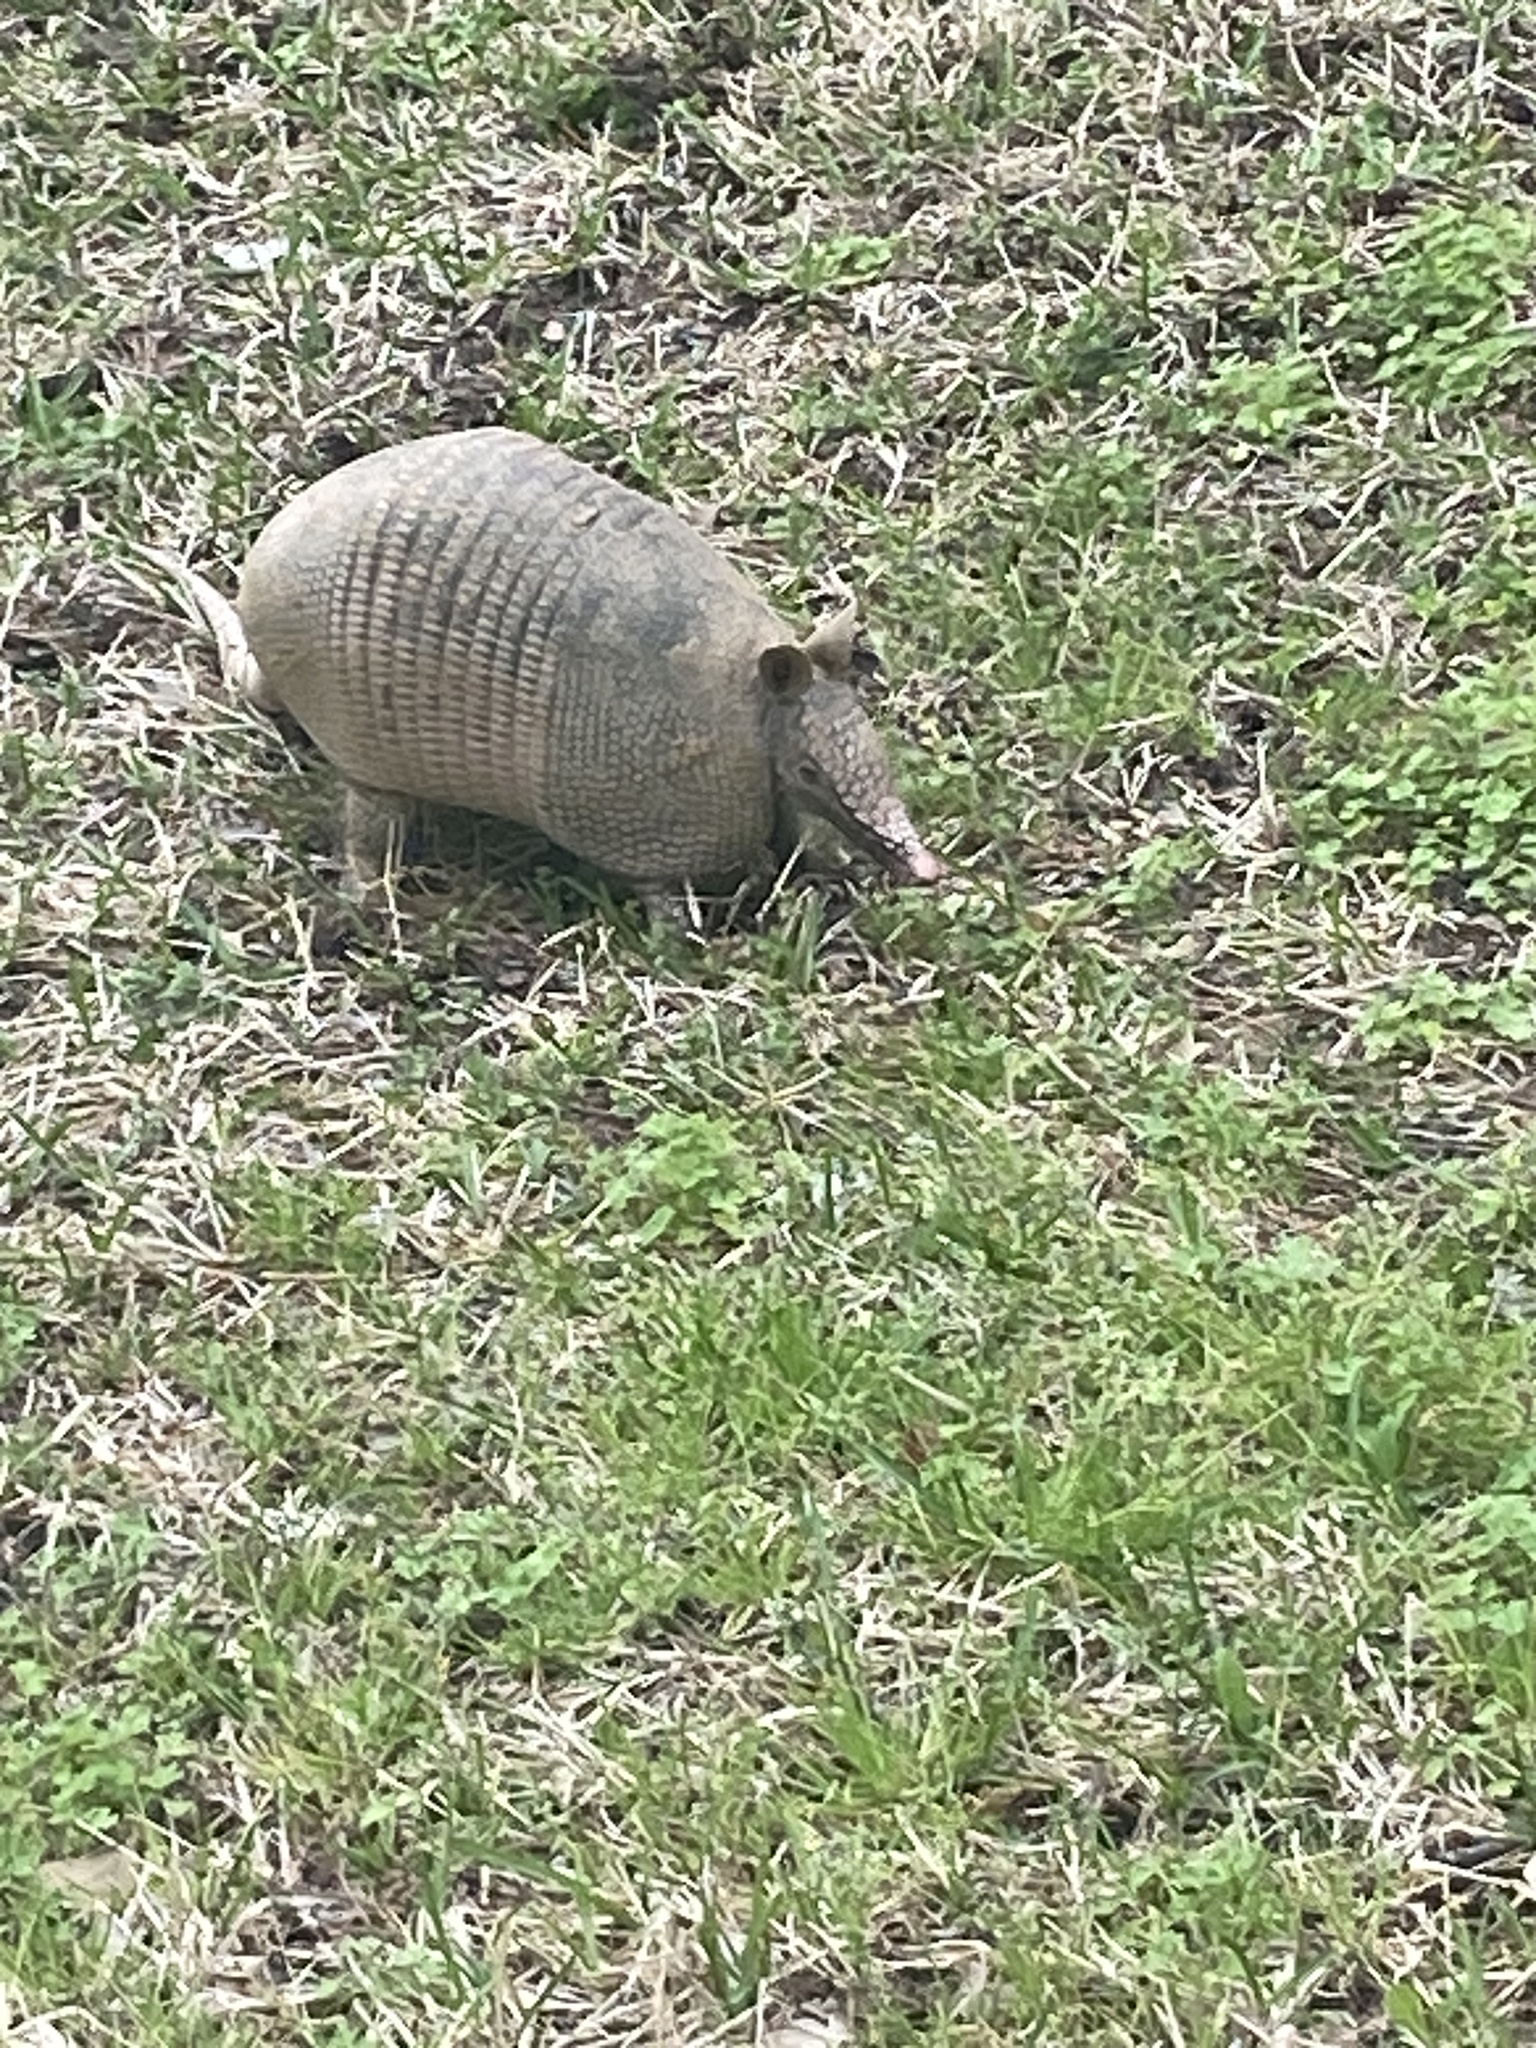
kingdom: Animalia
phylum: Chordata
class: Mammalia
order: Cingulata
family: Dasypodidae
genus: Dasypus
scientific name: Dasypus novemcinctus
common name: Nine-banded armadillo
